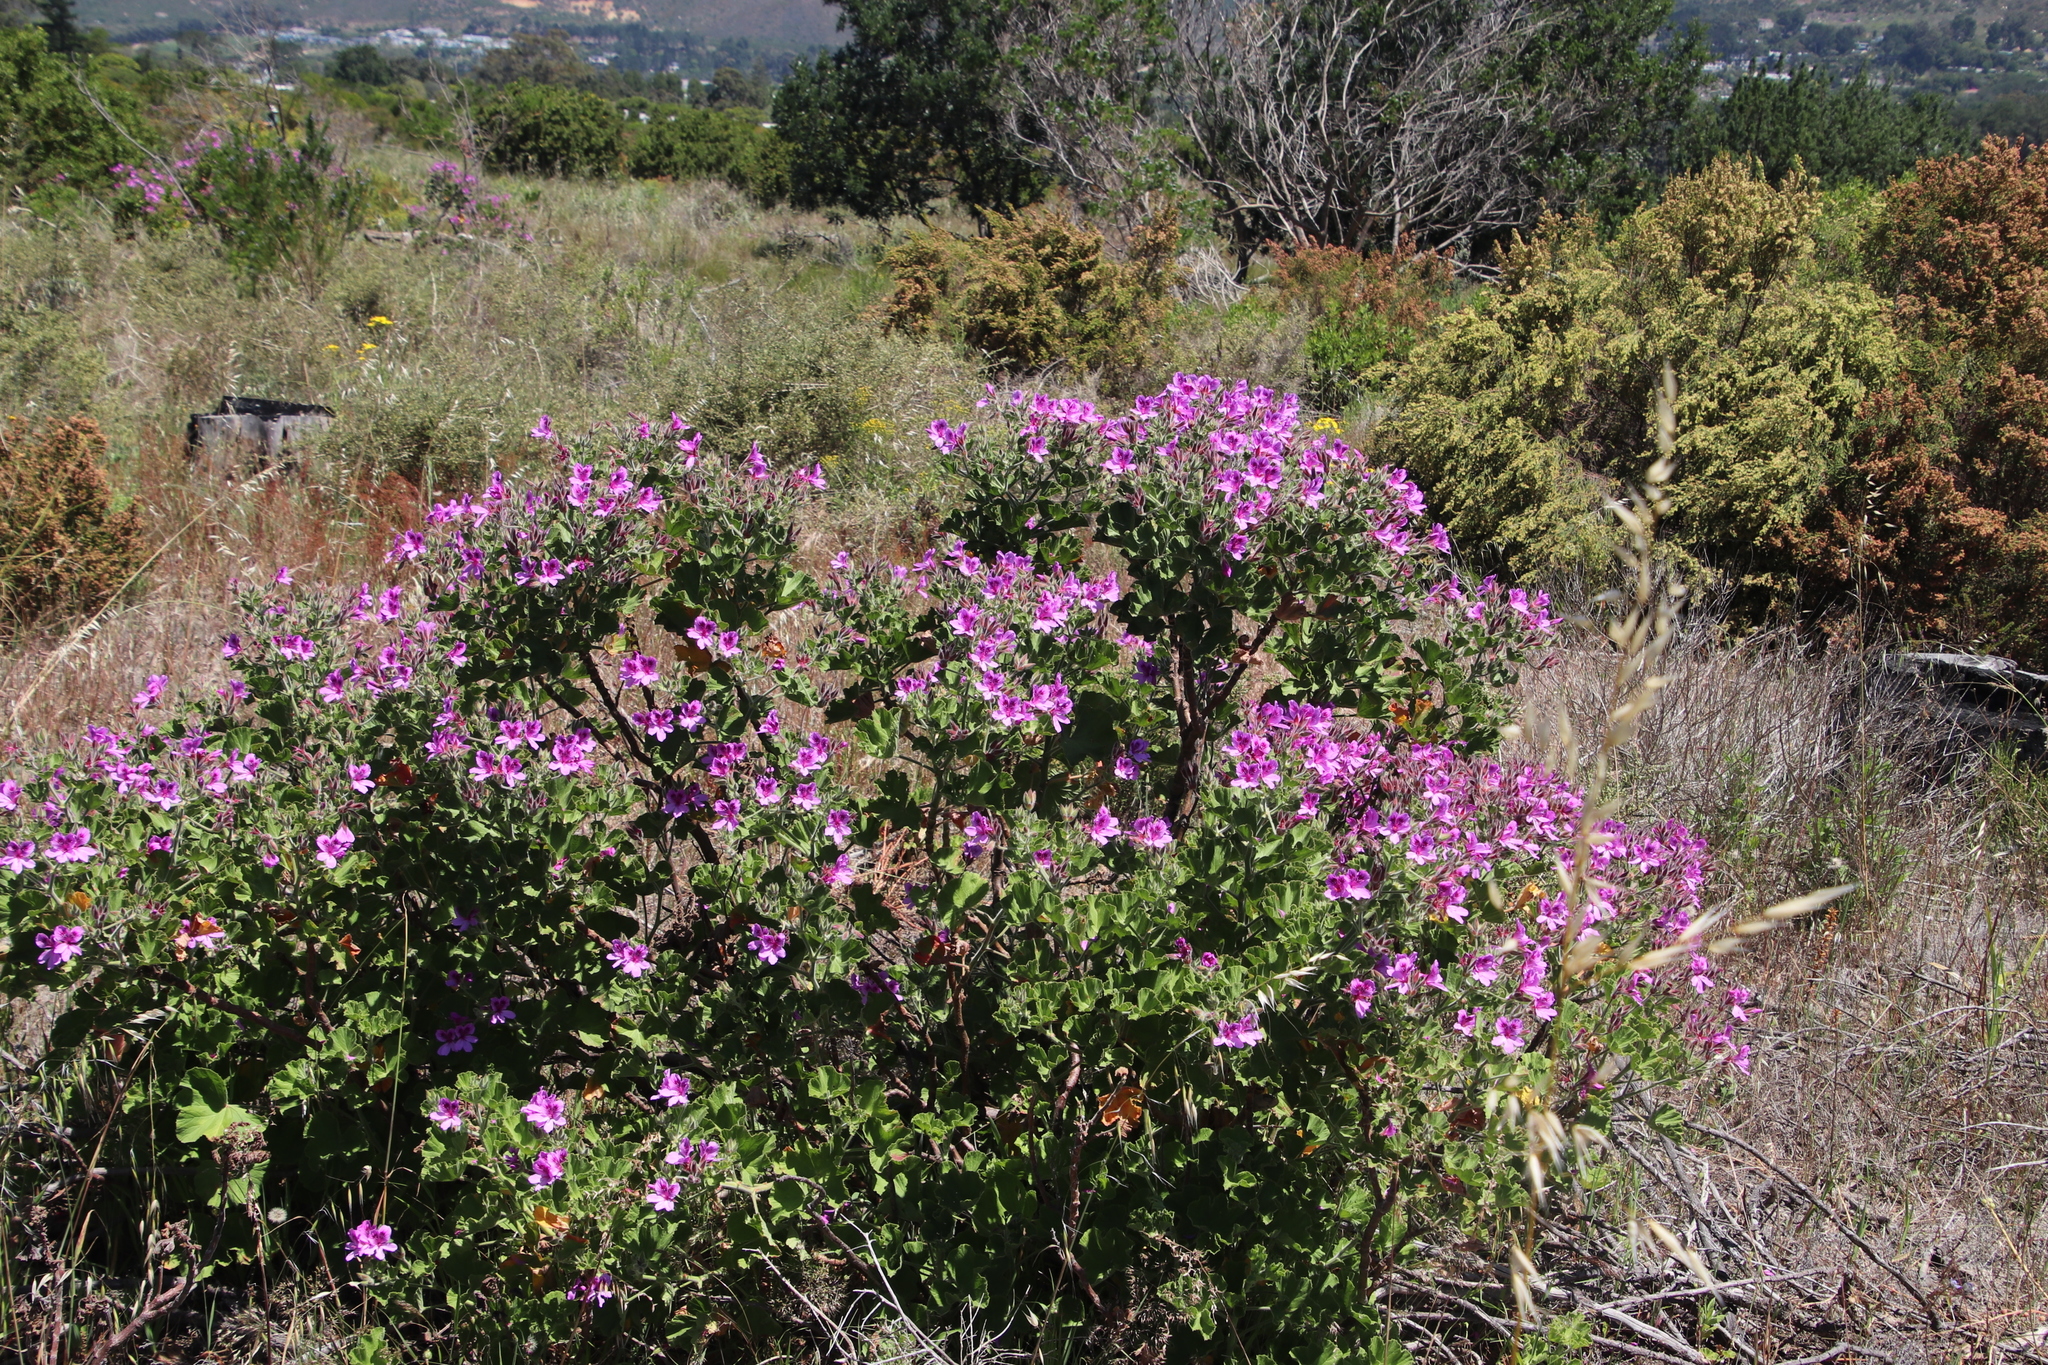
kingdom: Plantae
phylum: Tracheophyta
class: Magnoliopsida
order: Geraniales
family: Geraniaceae
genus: Pelargonium
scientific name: Pelargonium cucullatum
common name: Tree pelargonium
